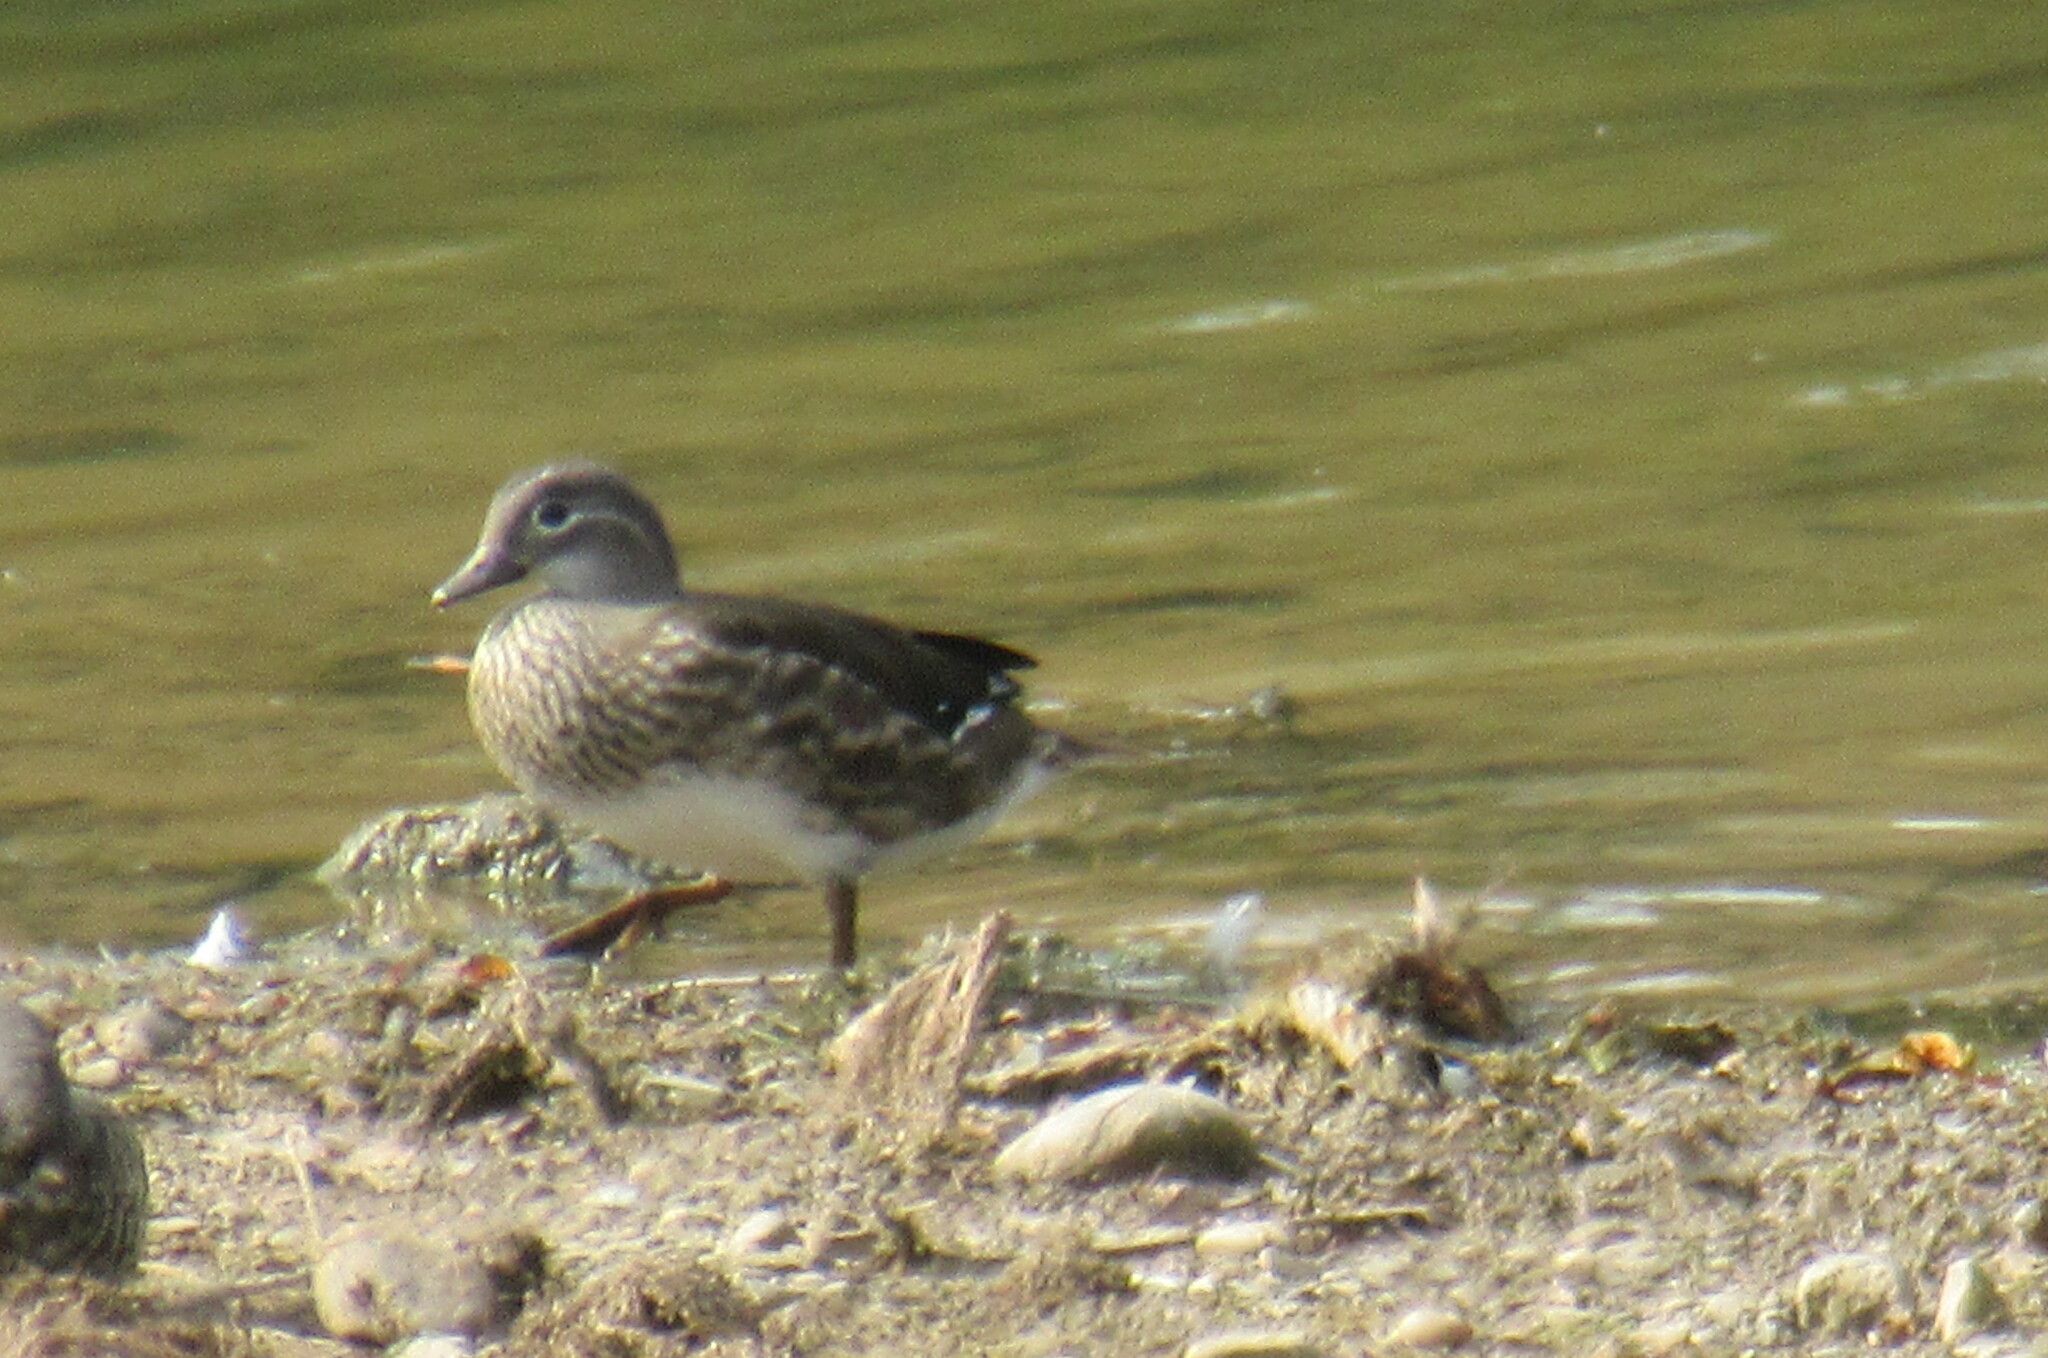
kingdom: Animalia
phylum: Chordata
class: Aves
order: Anseriformes
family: Anatidae
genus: Aix
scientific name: Aix galericulata
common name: Mandarin duck
